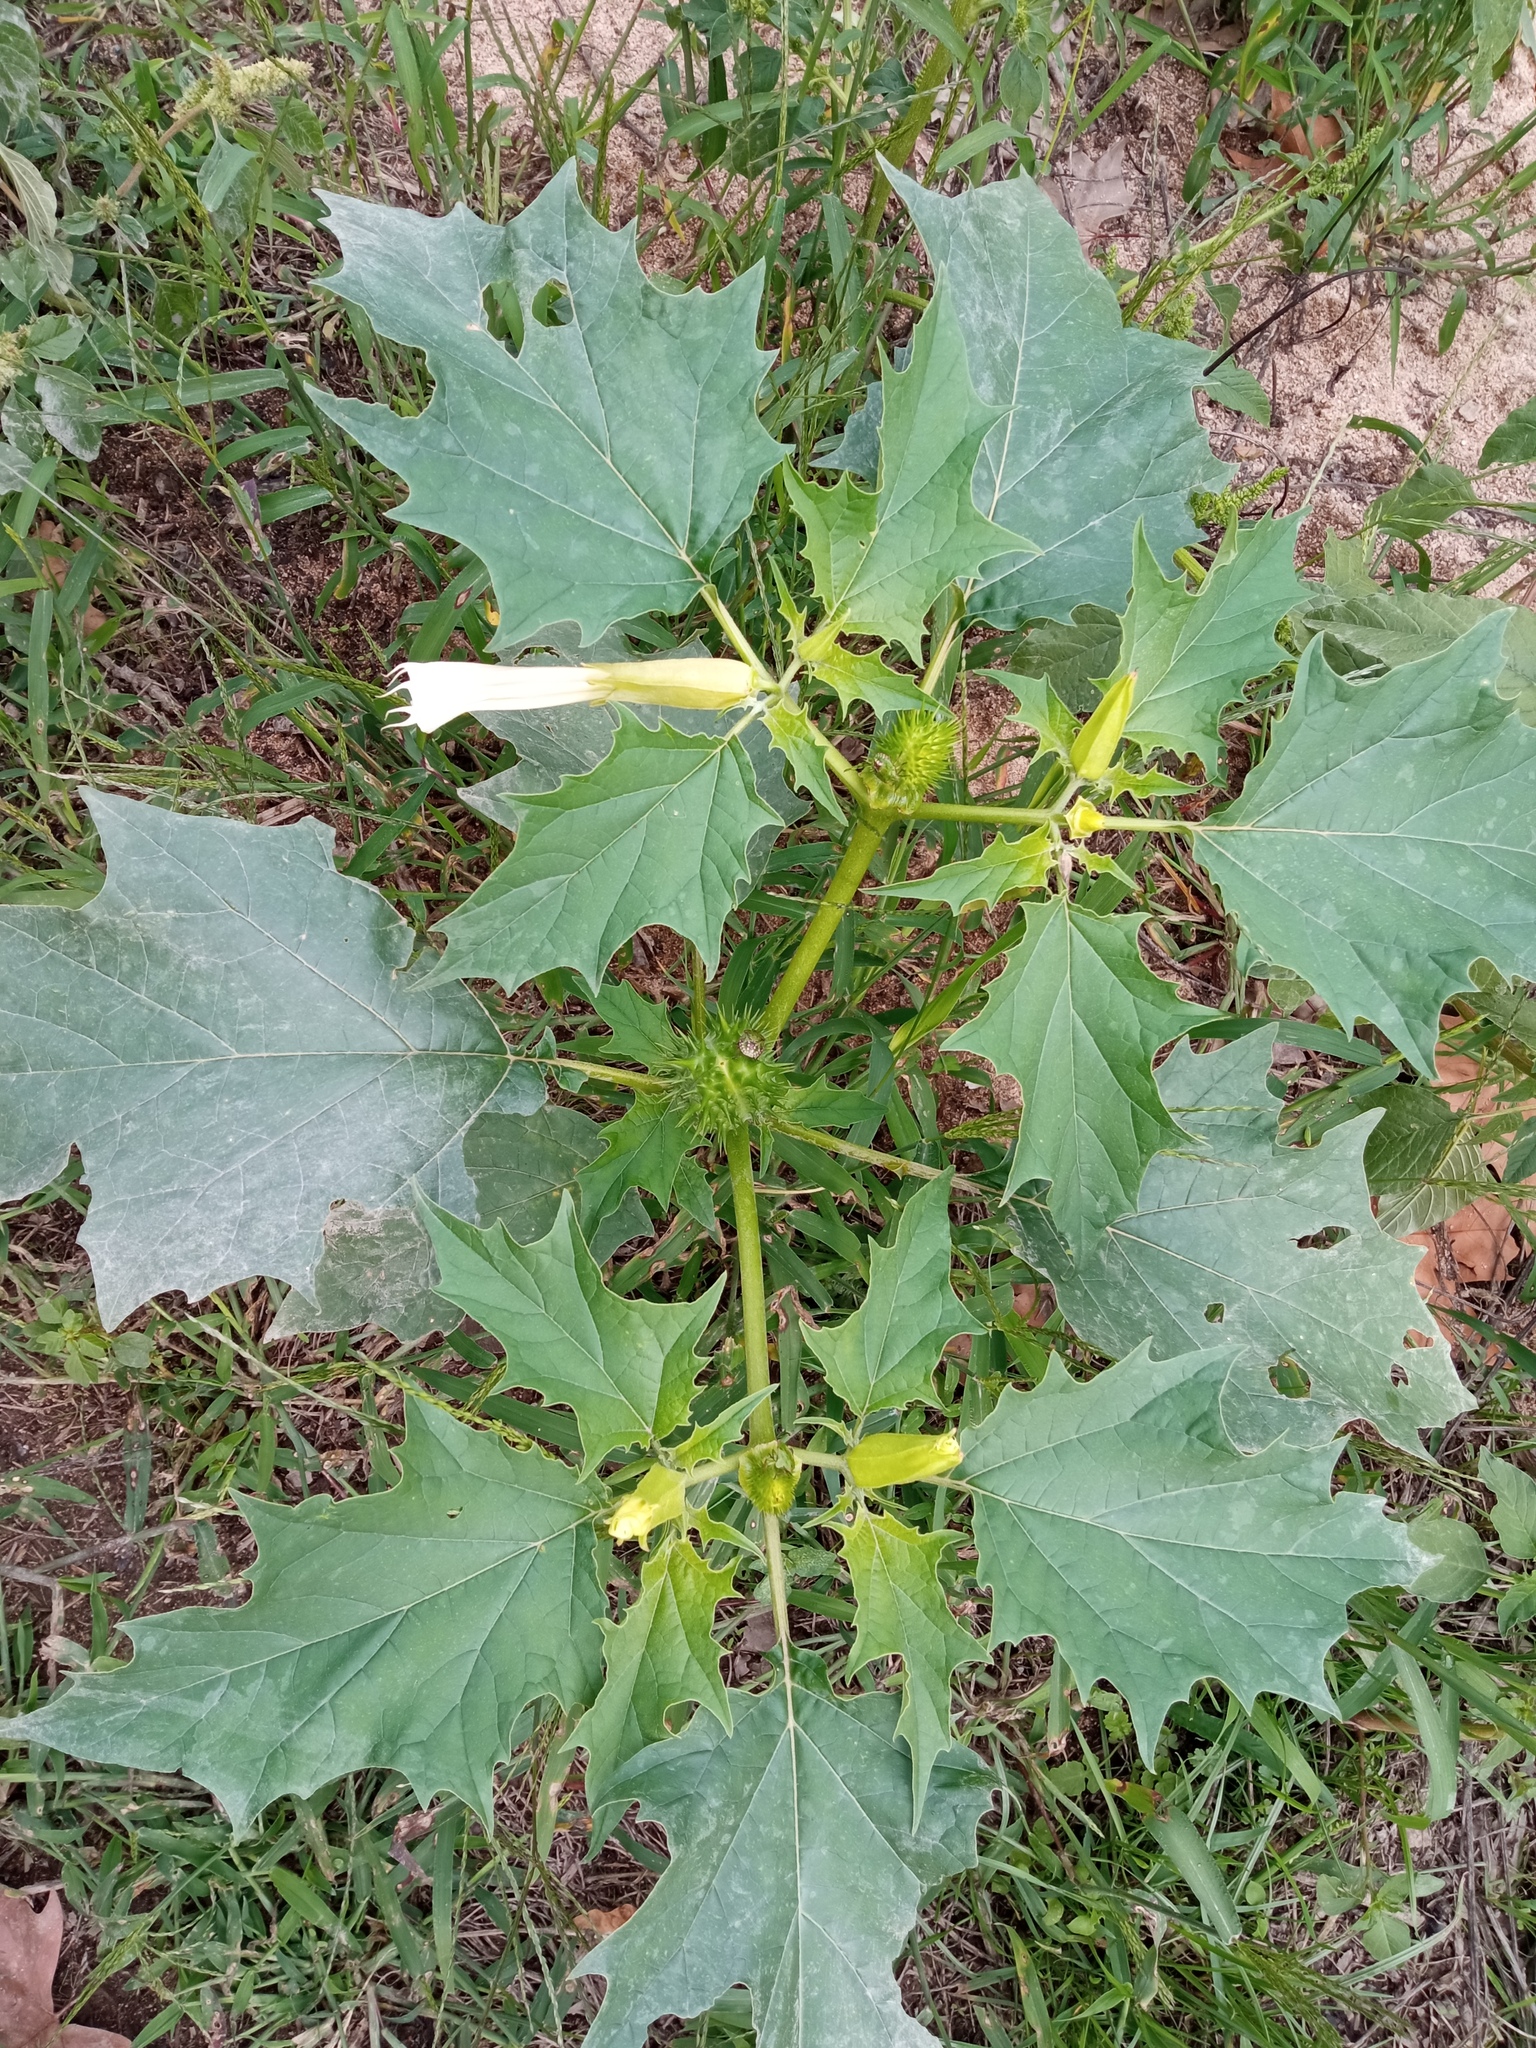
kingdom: Plantae
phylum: Tracheophyta
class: Magnoliopsida
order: Solanales
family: Solanaceae
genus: Datura
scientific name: Datura stramonium
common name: Thorn-apple
